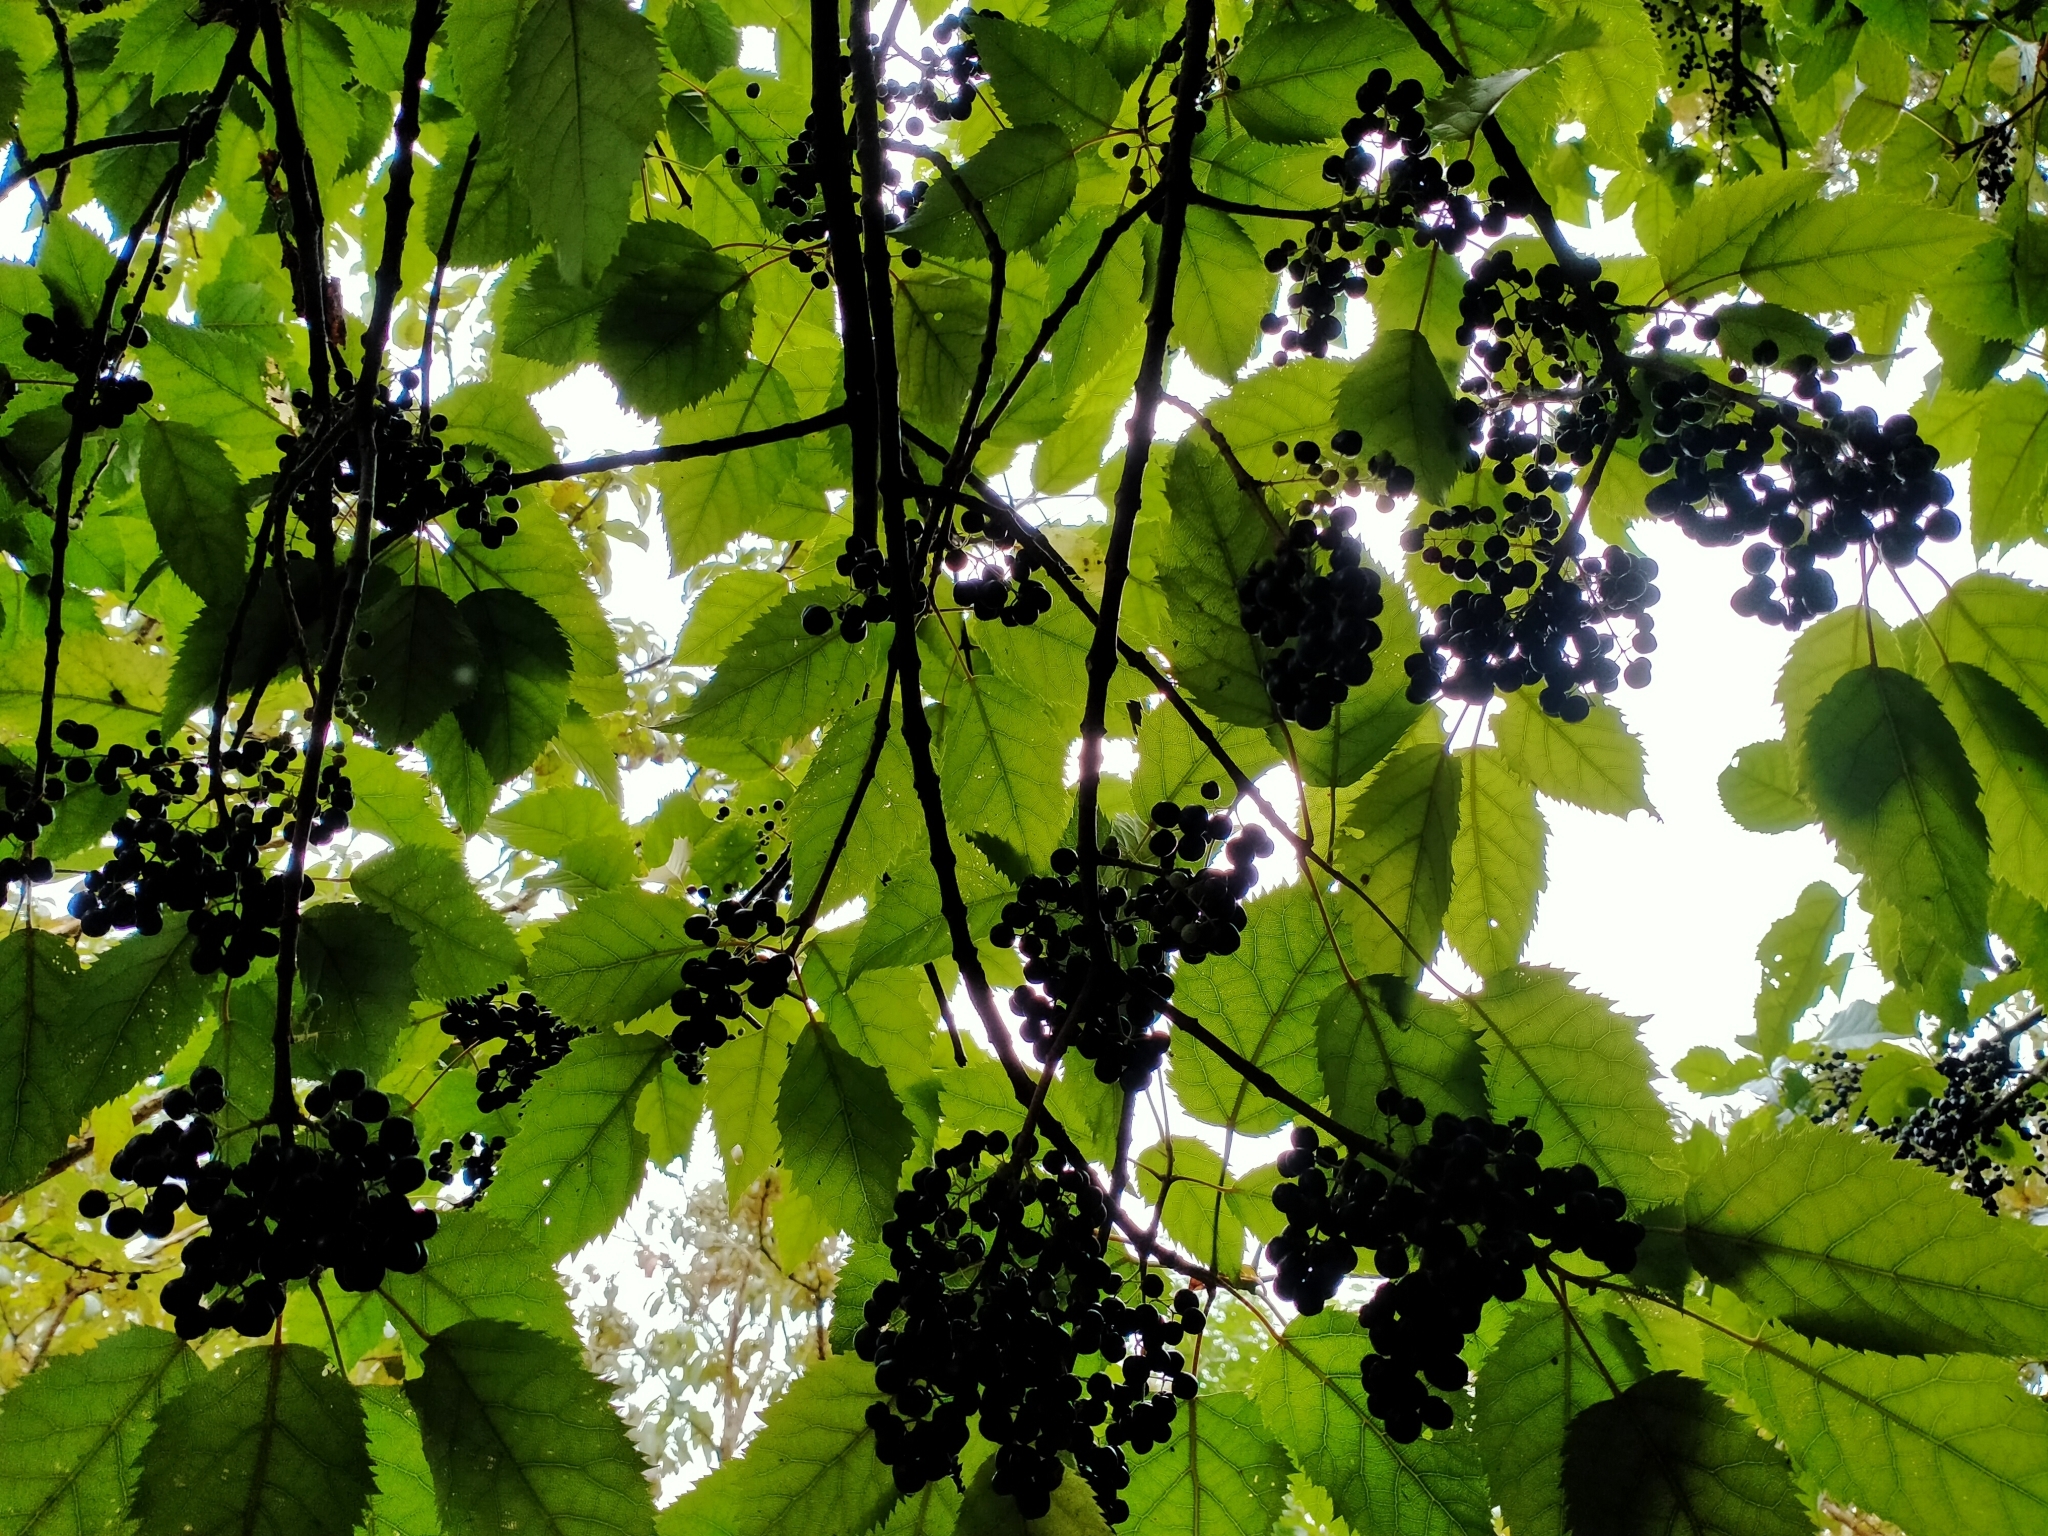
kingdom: Plantae
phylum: Tracheophyta
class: Magnoliopsida
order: Oxalidales
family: Elaeocarpaceae
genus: Aristotelia
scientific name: Aristotelia serrata
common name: New zealand wineberry
